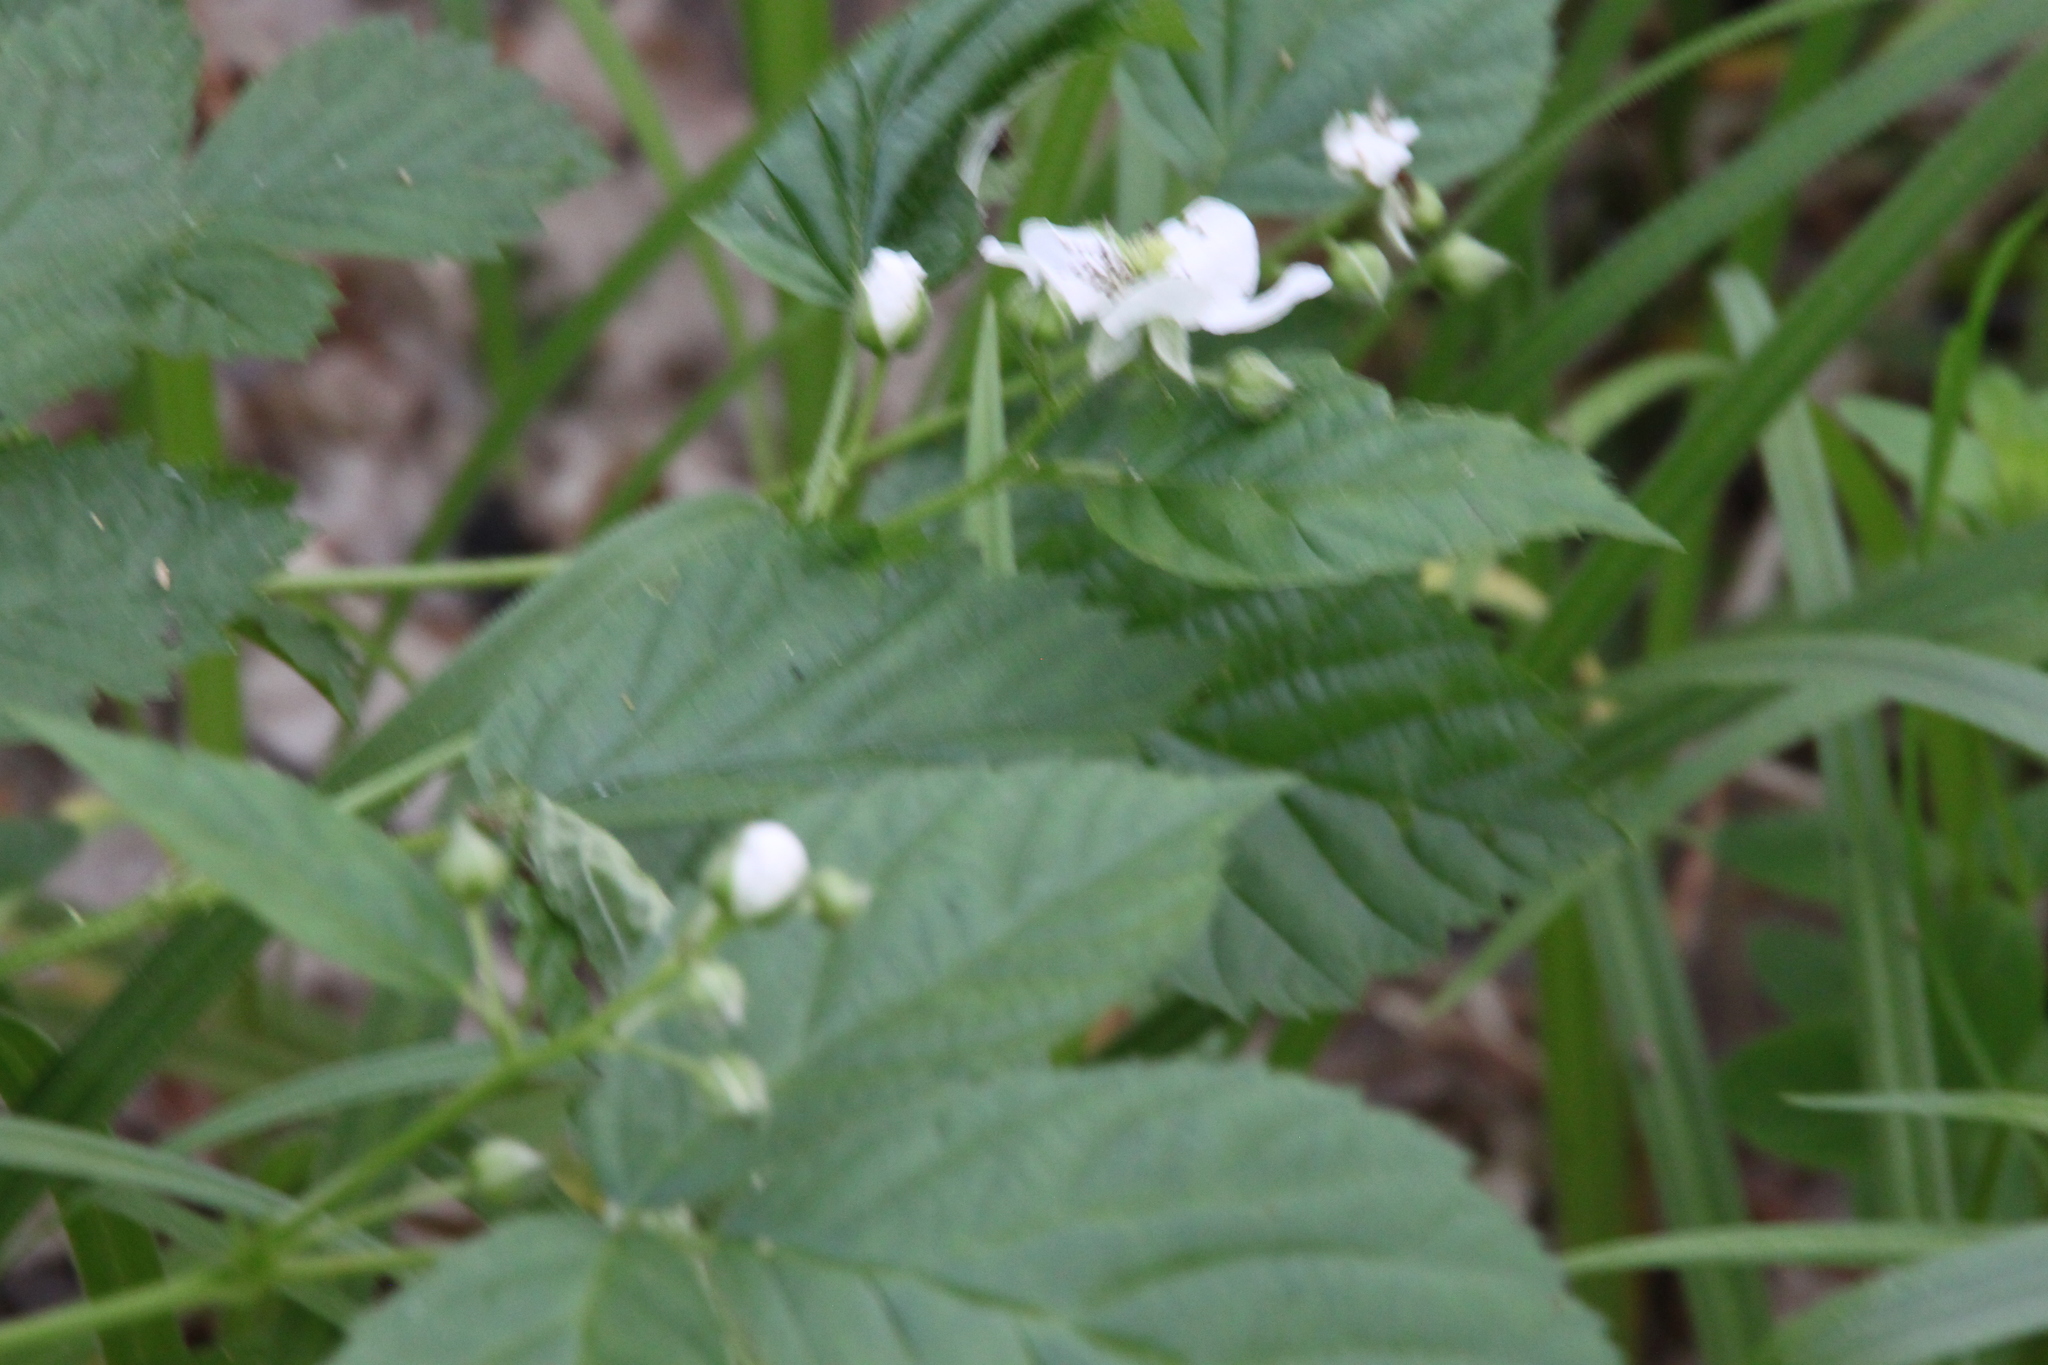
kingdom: Plantae
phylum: Tracheophyta
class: Magnoliopsida
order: Rosales
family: Rosaceae
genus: Rubus
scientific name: Rubus polonicus
